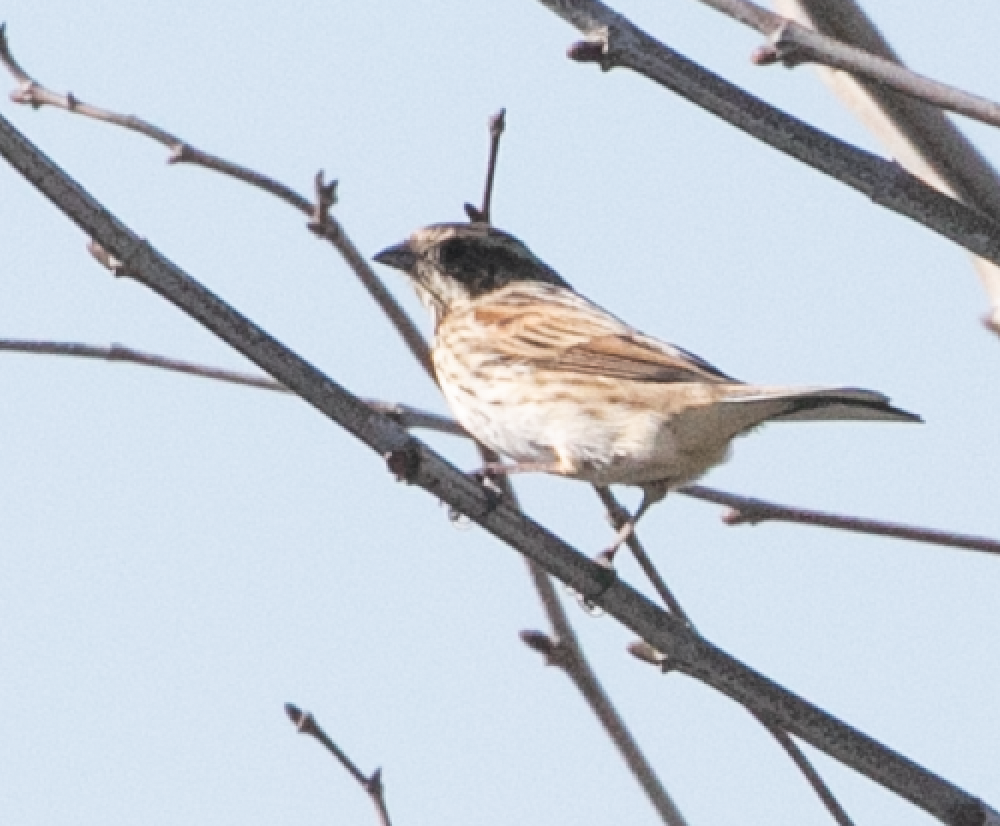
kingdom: Animalia
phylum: Chordata
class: Aves
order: Passeriformes
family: Emberizidae
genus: Emberiza
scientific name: Emberiza schoeniclus
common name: Reed bunting
